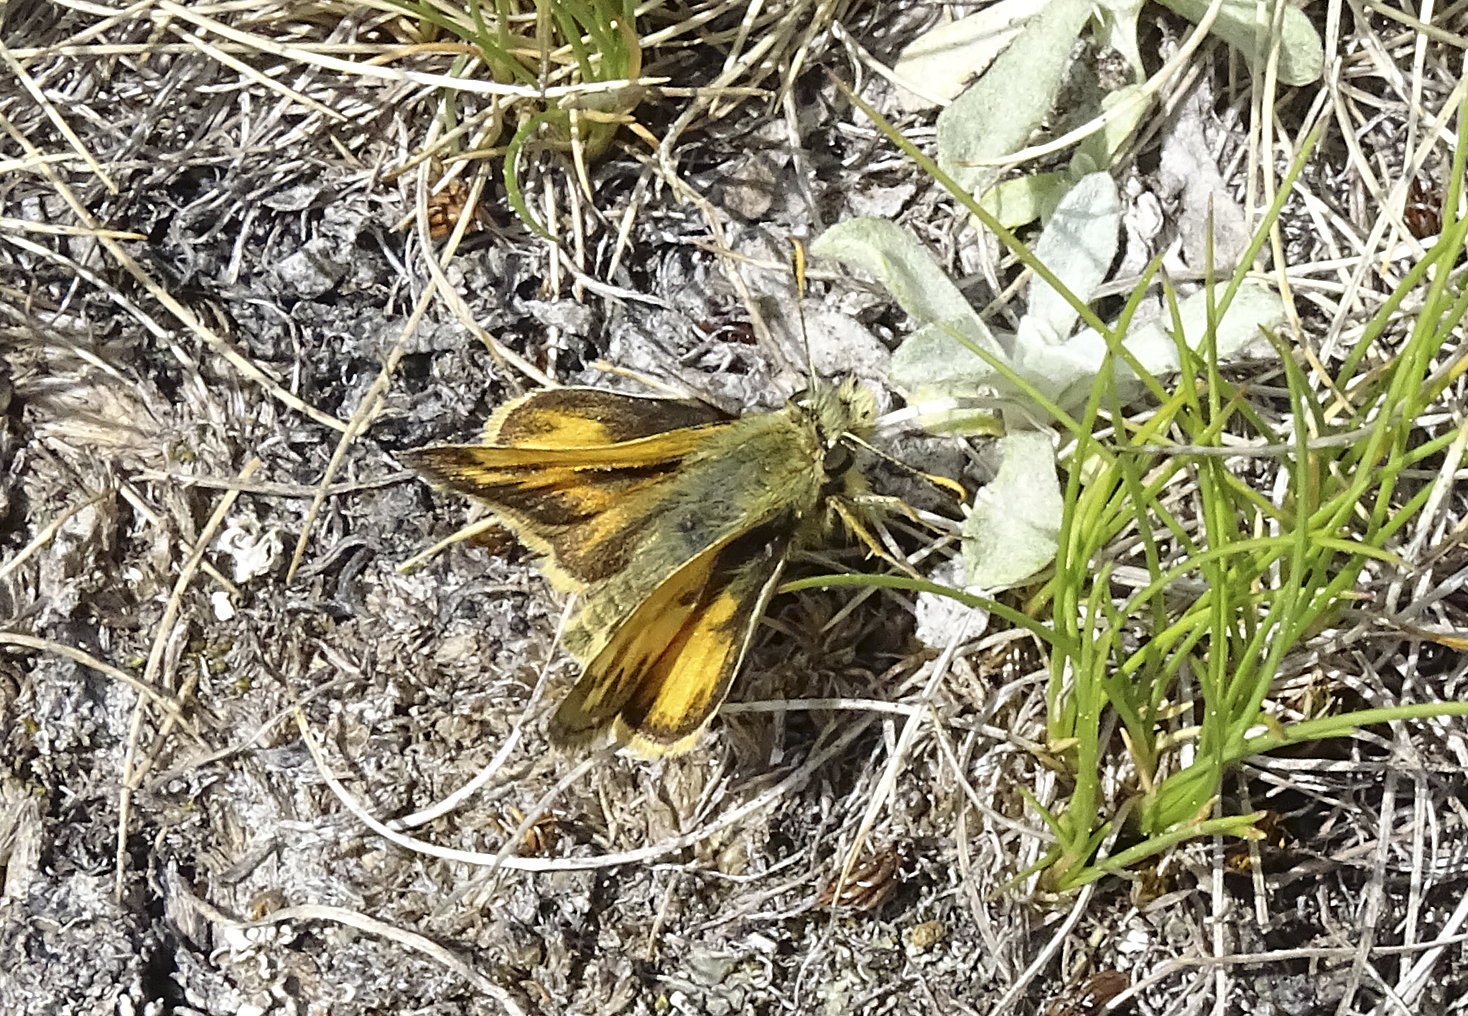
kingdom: Animalia
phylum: Arthropoda
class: Insecta
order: Lepidoptera
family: Hesperiidae
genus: Polites
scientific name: Polites sabuleti
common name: Sandhill skipper
